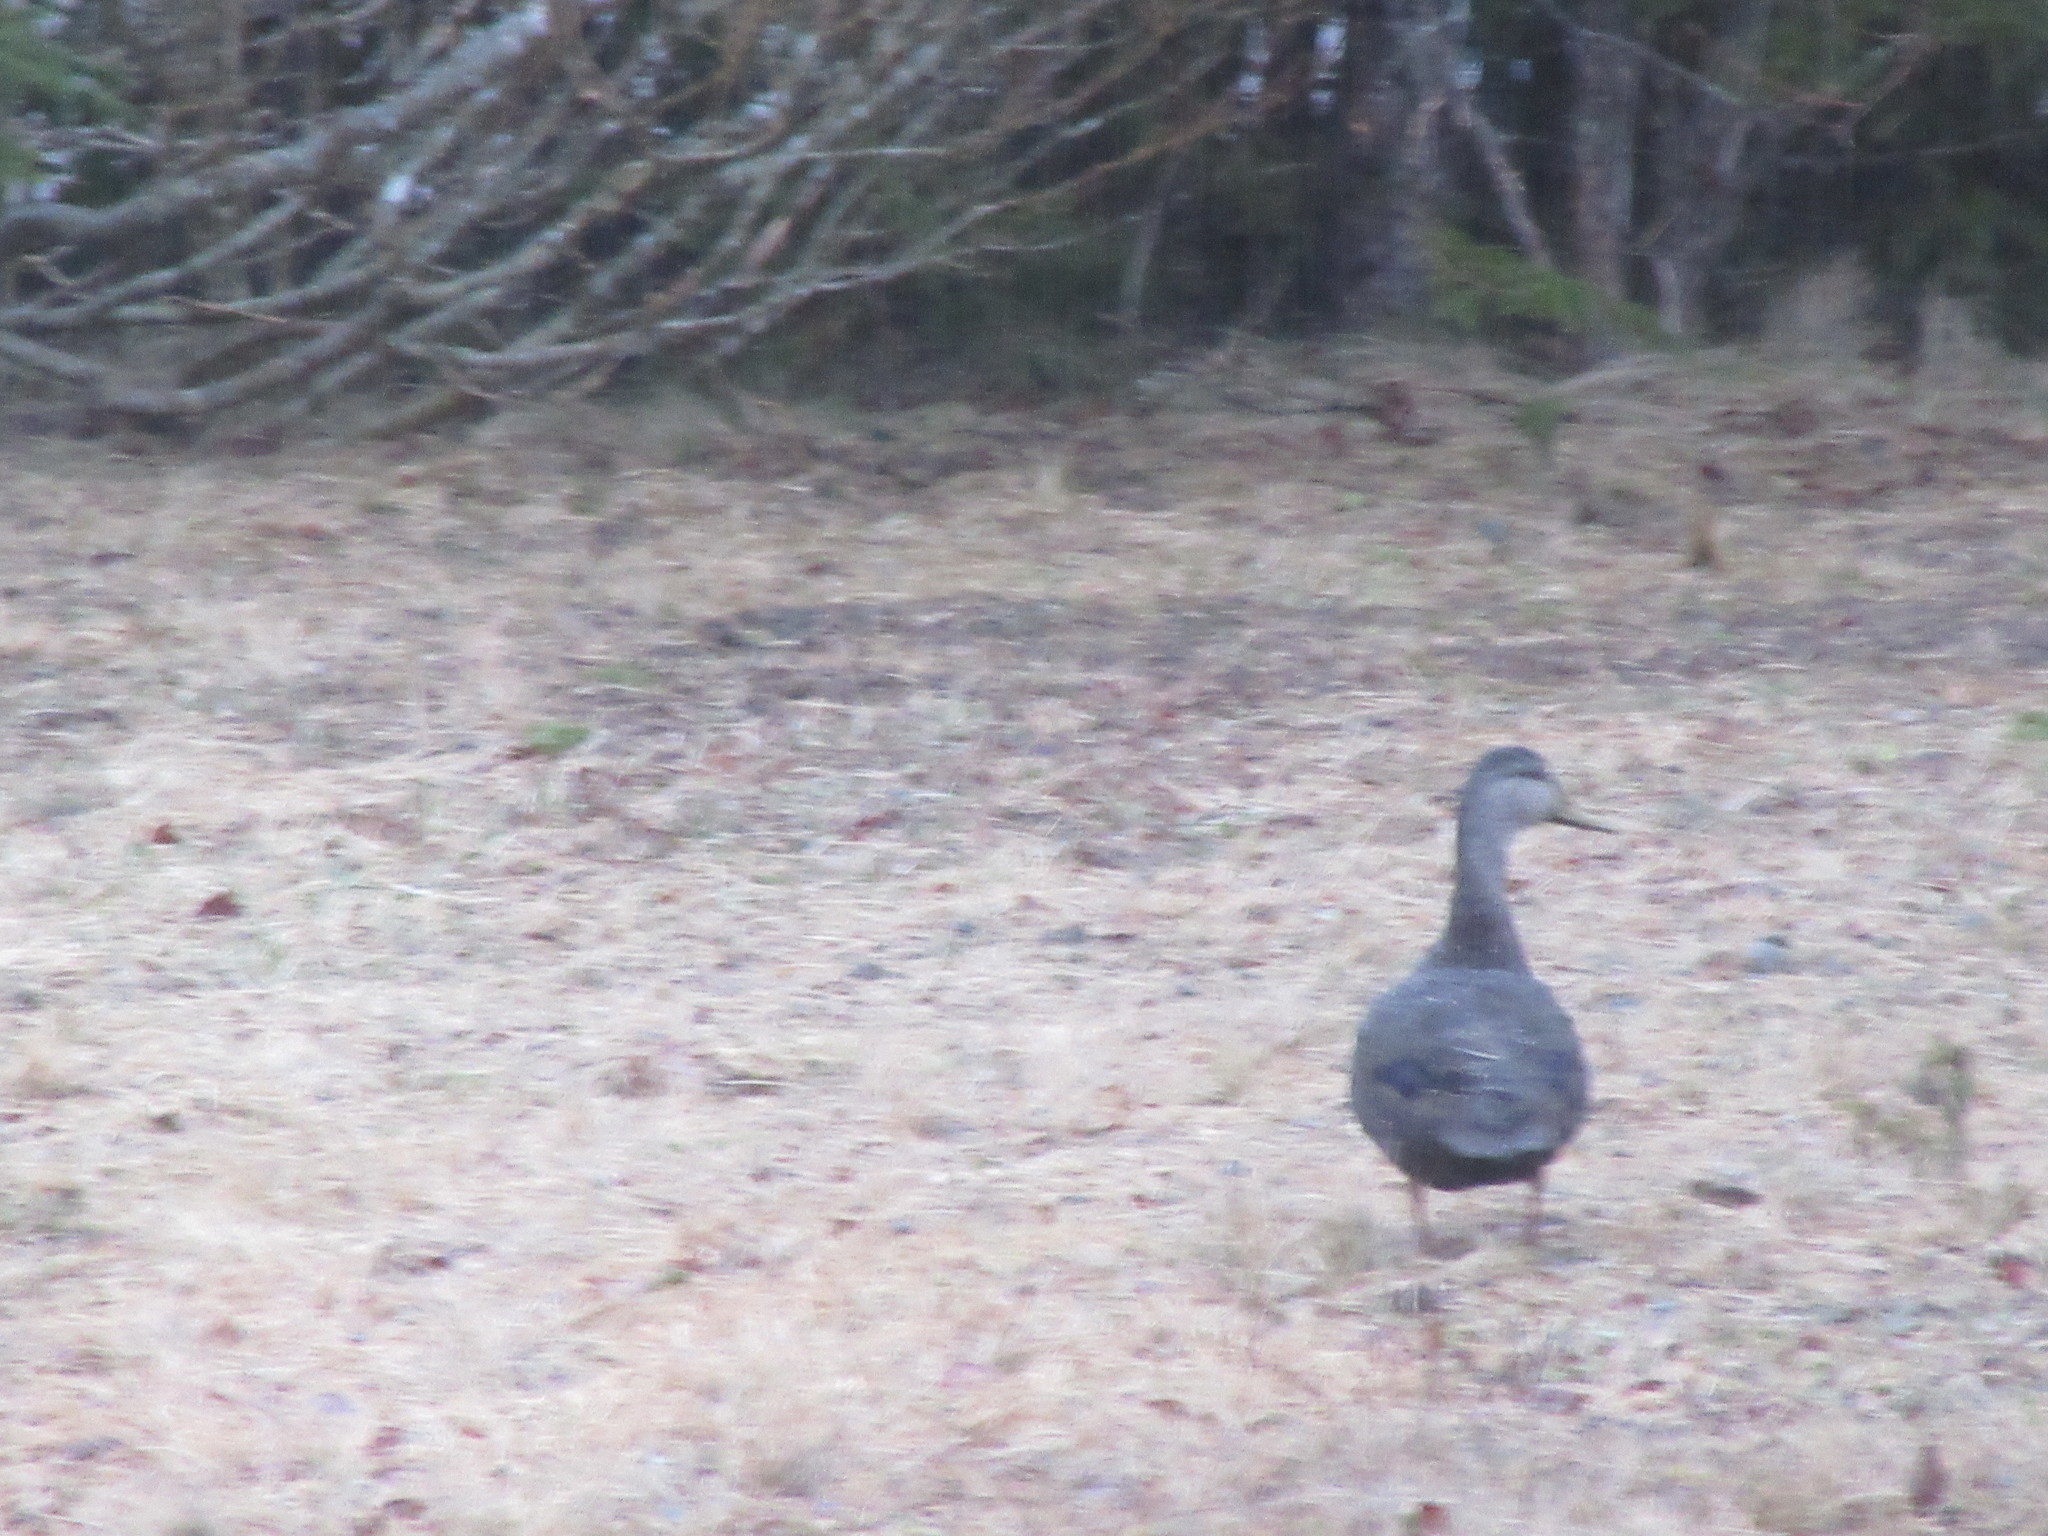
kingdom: Animalia
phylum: Chordata
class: Aves
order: Anseriformes
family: Anatidae
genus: Anas
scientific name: Anas rubripes
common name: American black duck
